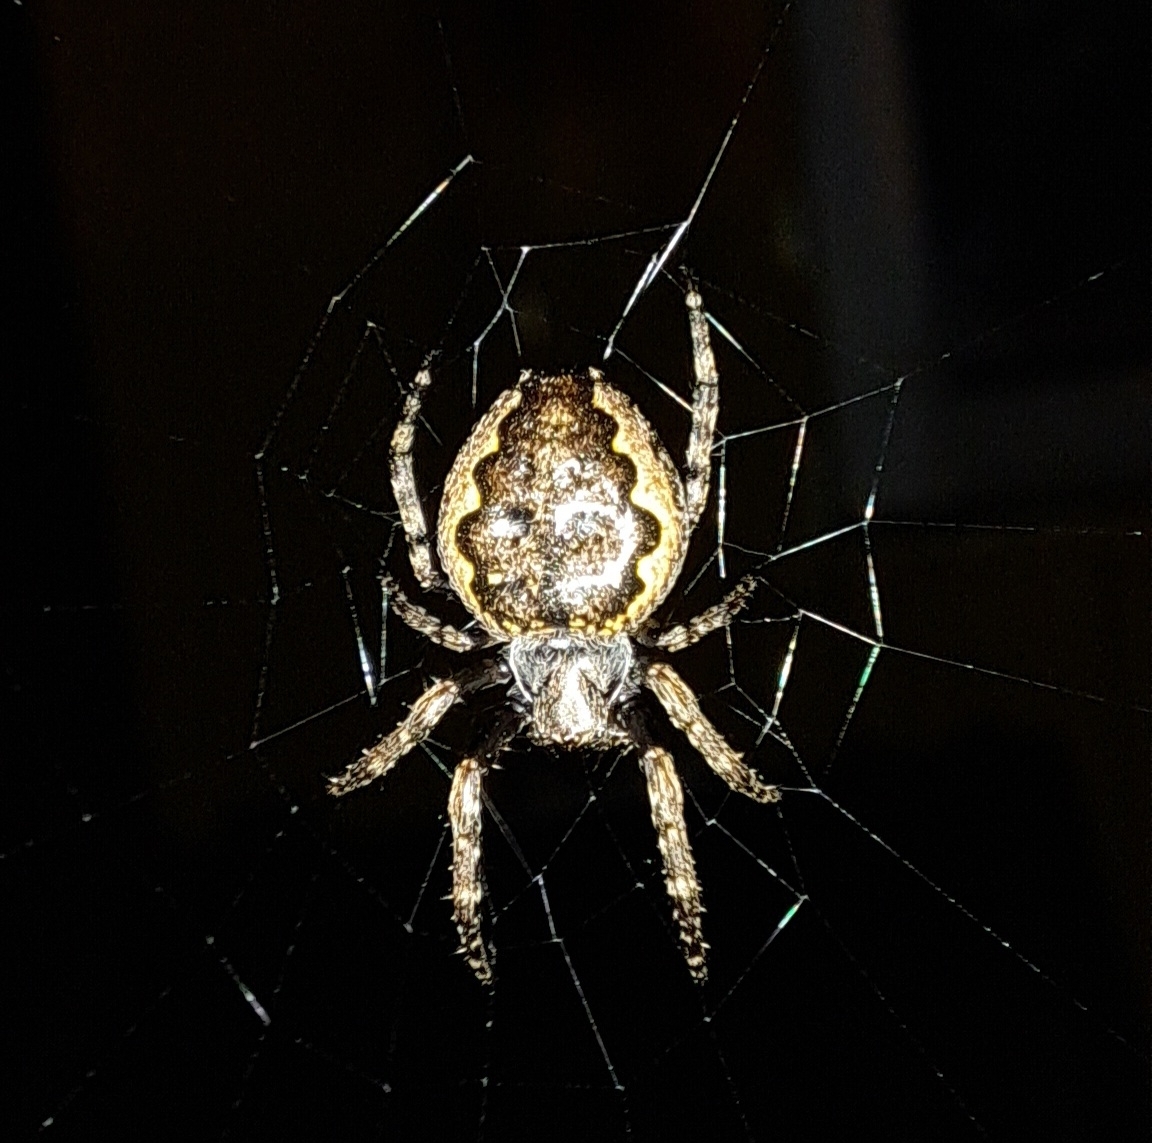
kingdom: Animalia
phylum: Arthropoda
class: Arachnida
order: Araneae
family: Araneidae
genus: Nuctenea
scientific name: Nuctenea umbratica
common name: Toad spider
